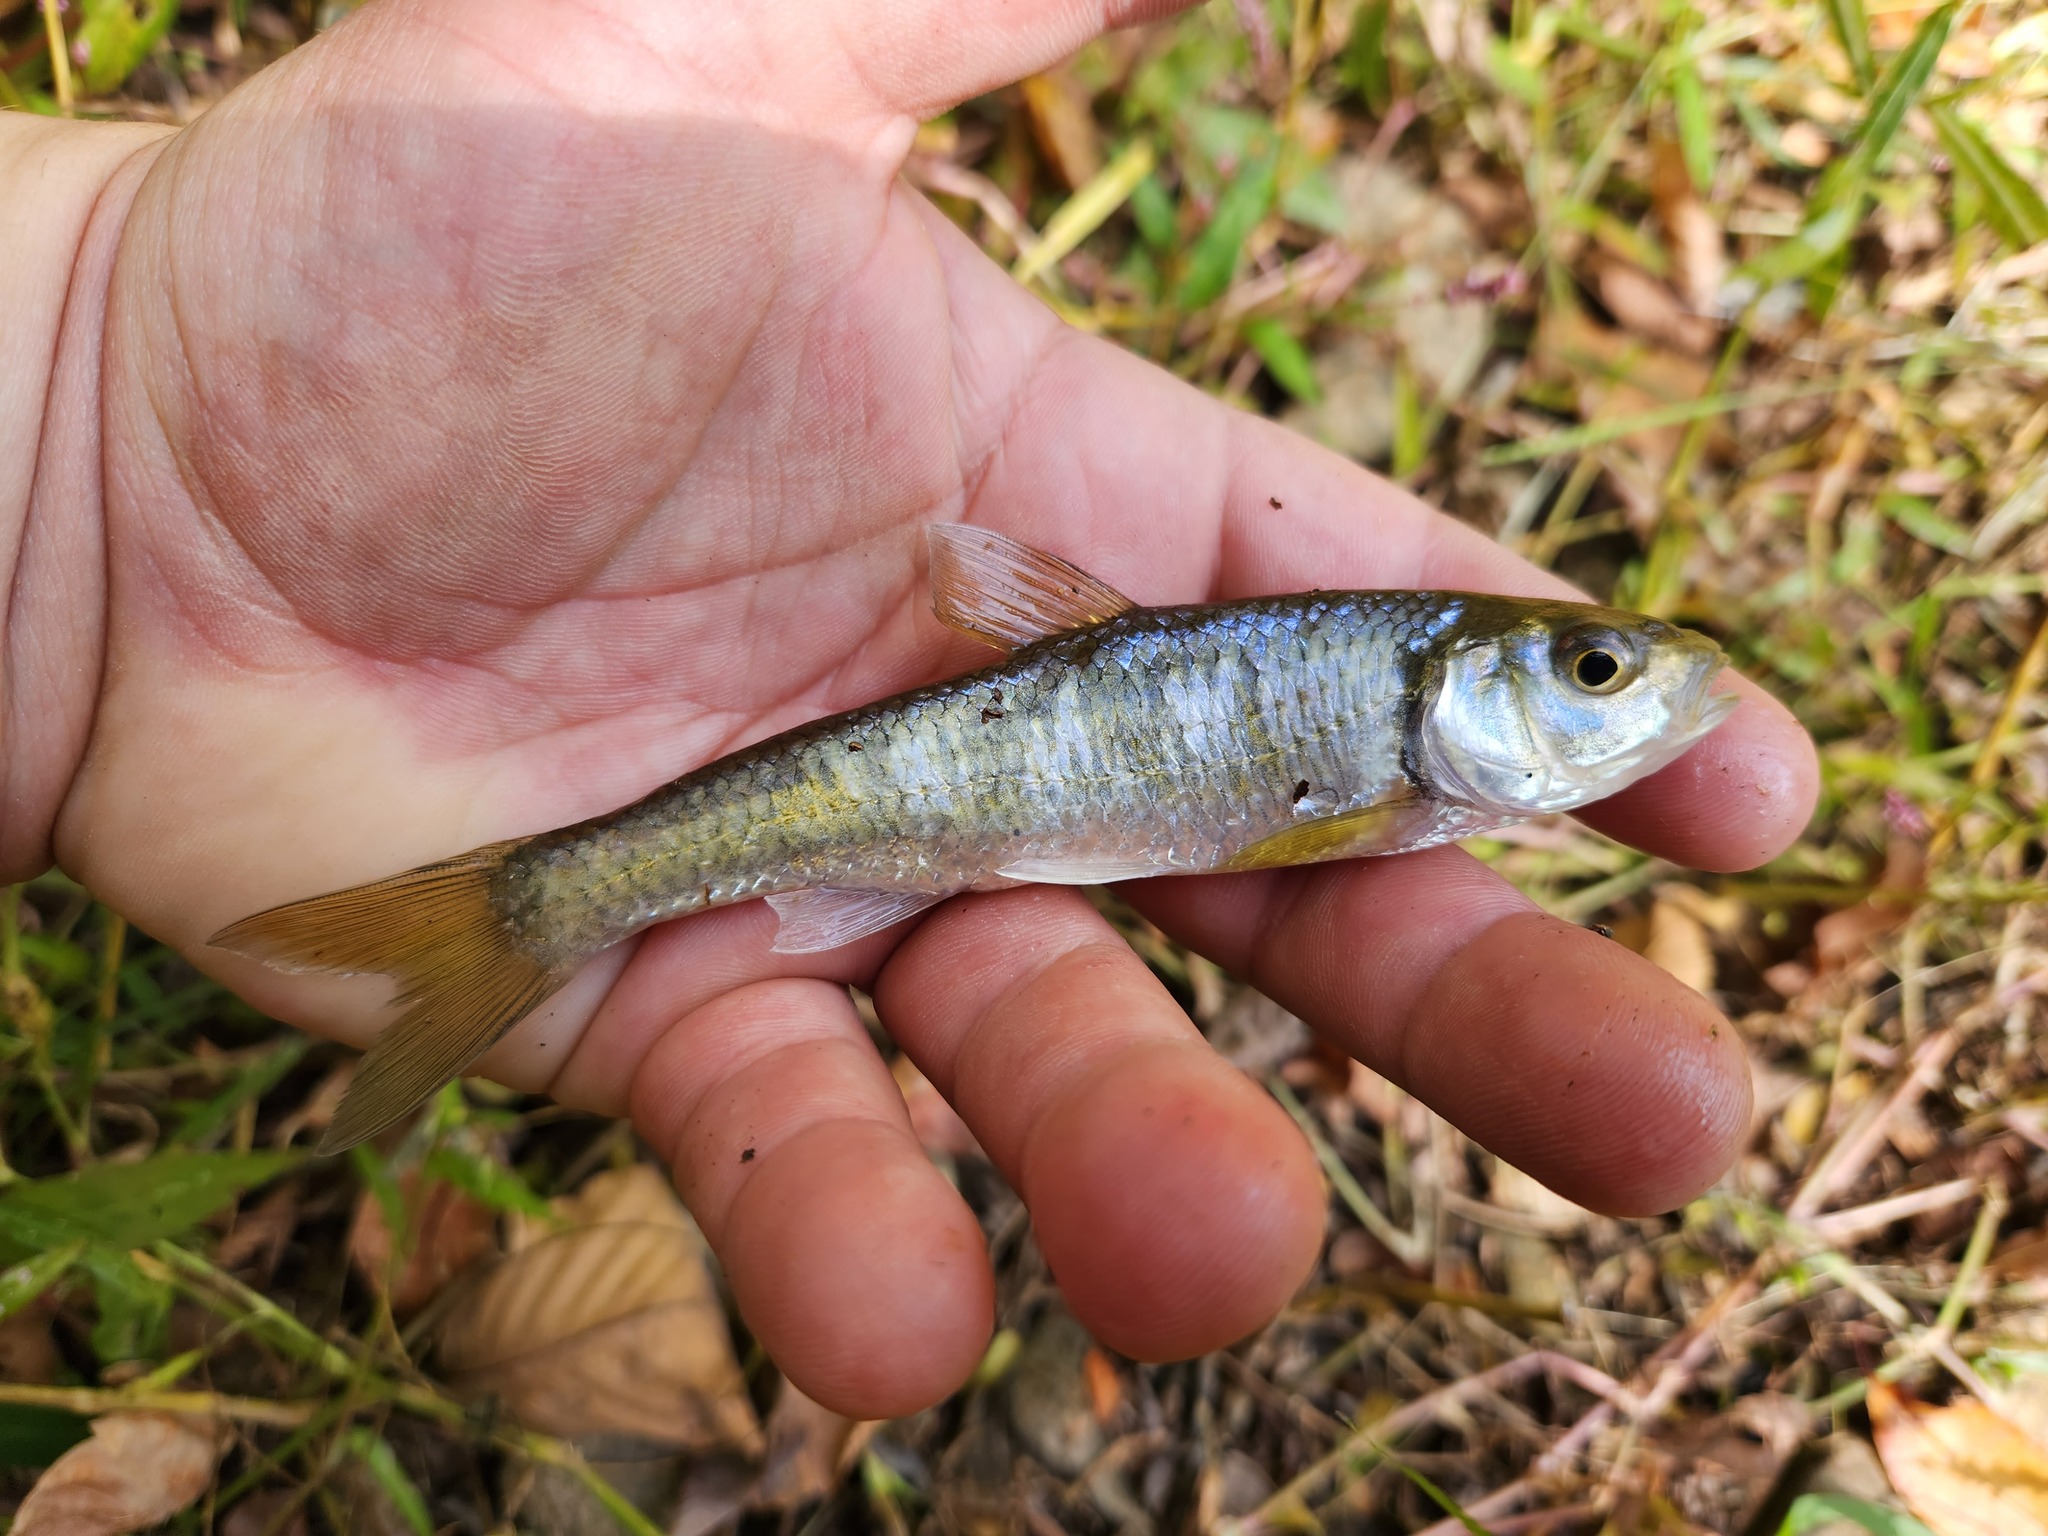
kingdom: Animalia
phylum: Chordata
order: Cypriniformes
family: Cyprinidae
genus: Luxilus
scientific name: Luxilus chrysocephalus
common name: Striped shiner
